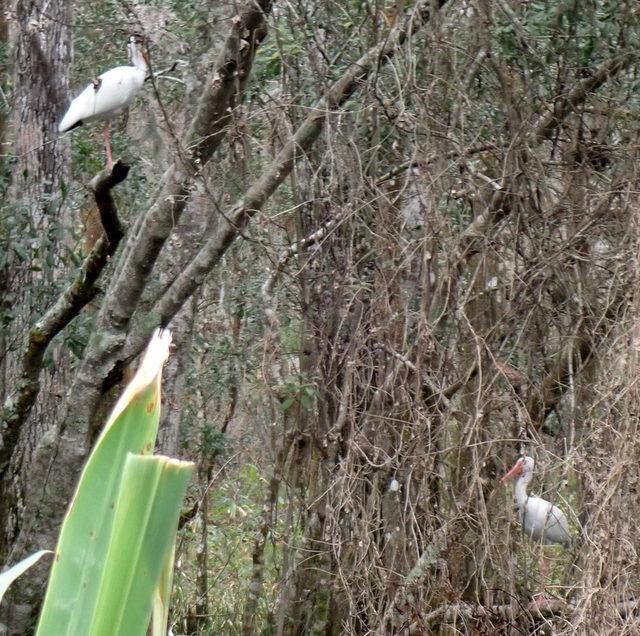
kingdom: Animalia
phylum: Chordata
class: Aves
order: Pelecaniformes
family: Threskiornithidae
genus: Eudocimus
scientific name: Eudocimus albus
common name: White ibis
